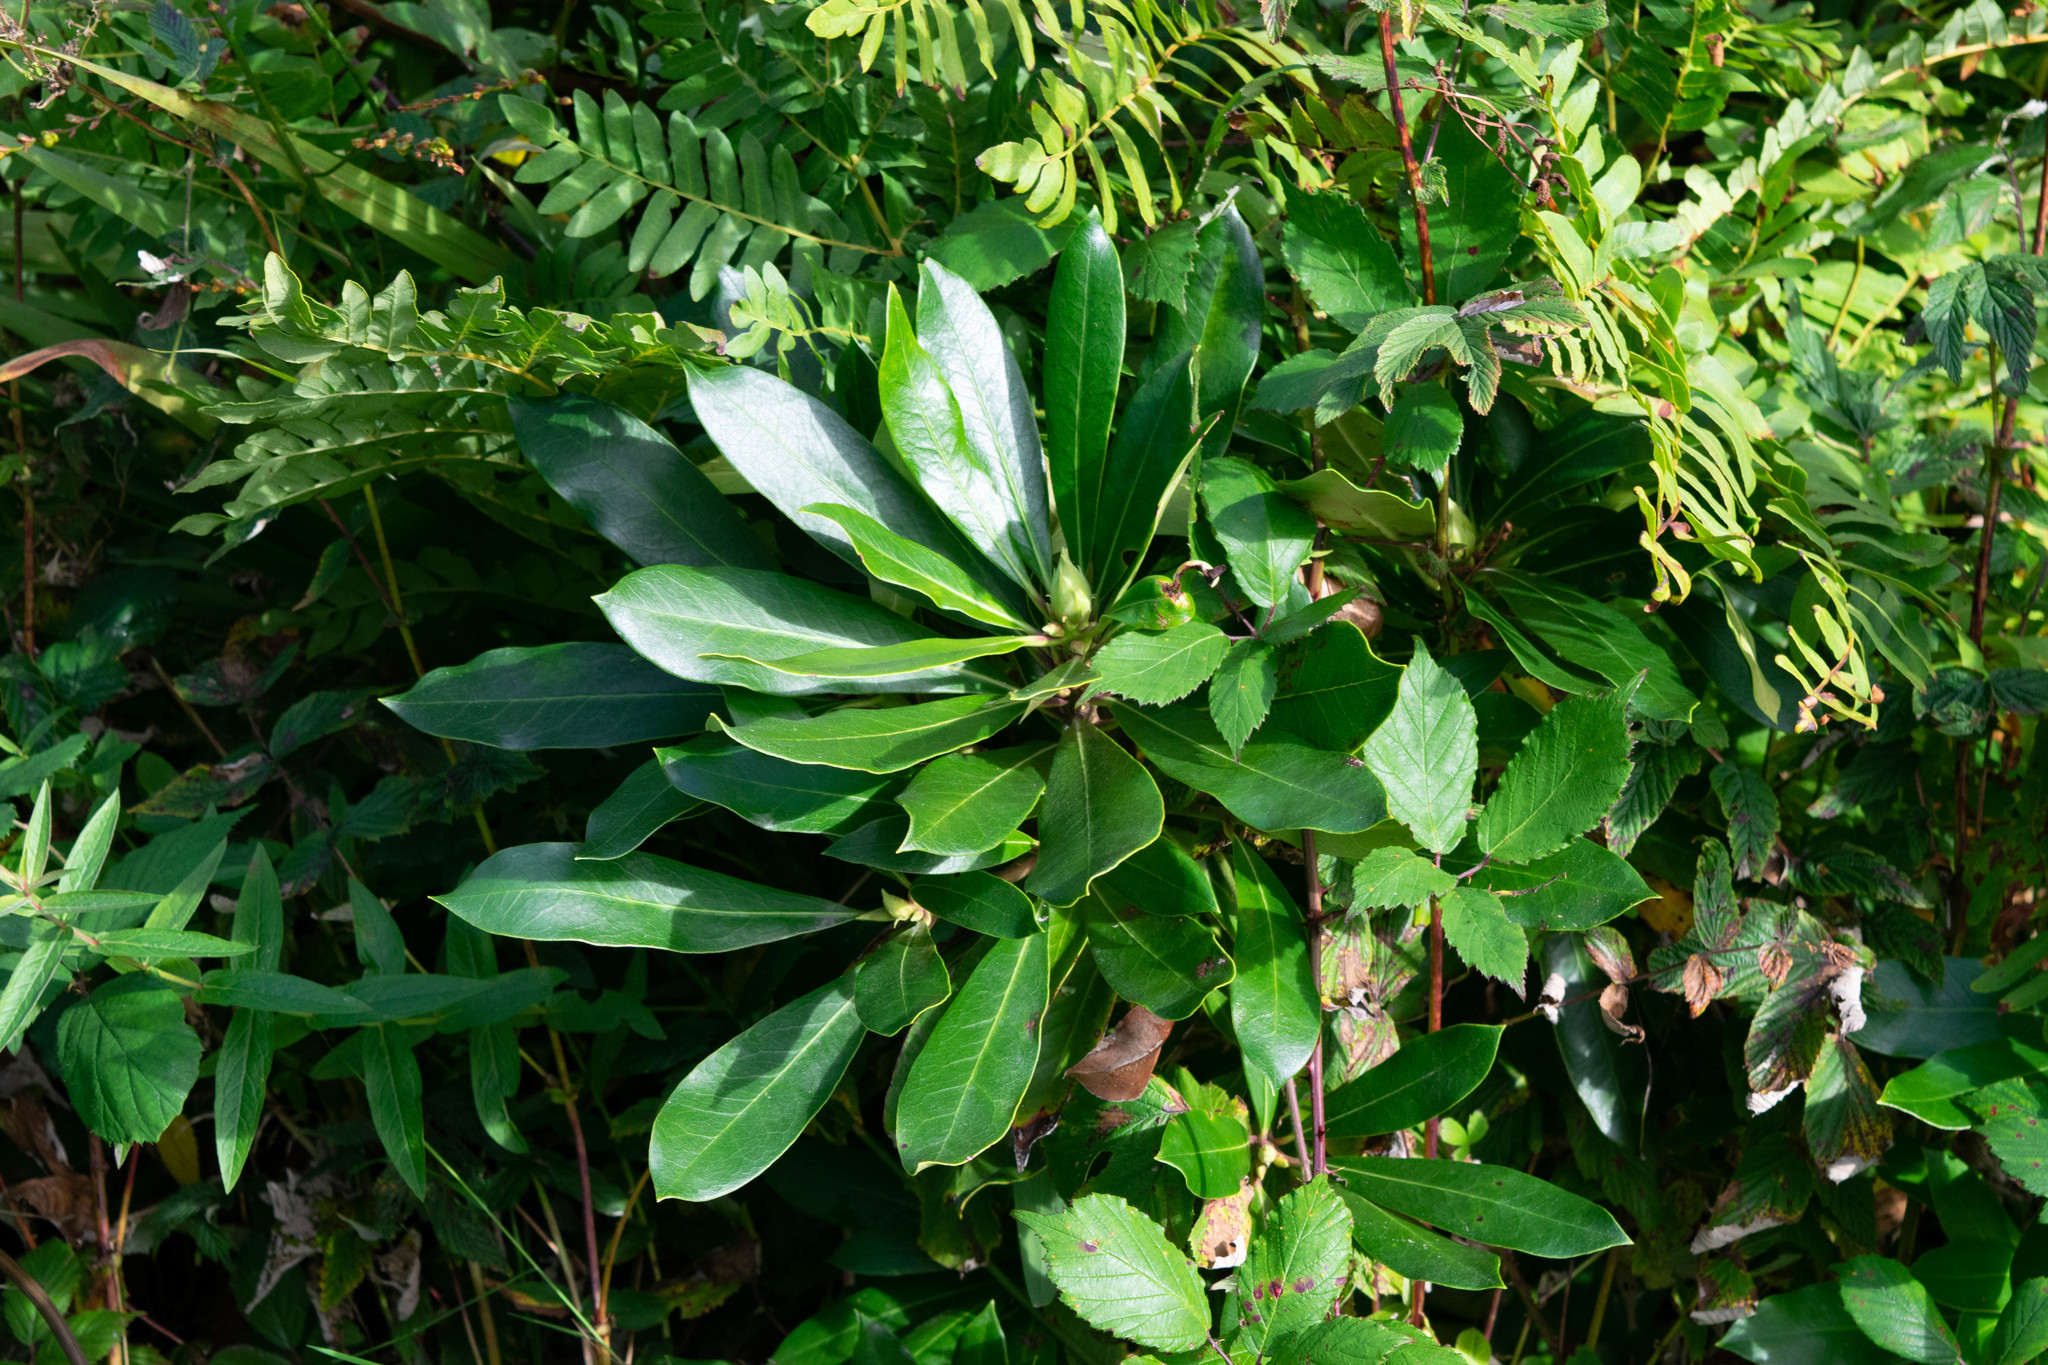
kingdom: Plantae
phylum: Tracheophyta
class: Magnoliopsida
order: Ericales
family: Ericaceae
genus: Rhododendron
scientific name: Rhododendron ponticum
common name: Rhododendron
